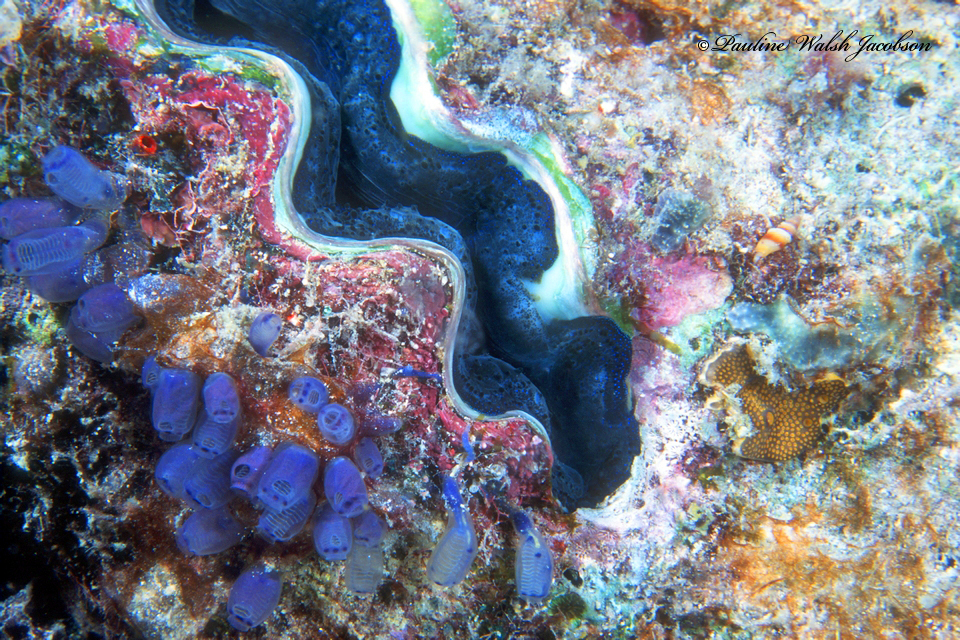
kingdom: Animalia
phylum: Mollusca
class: Bivalvia
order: Cardiida
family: Cardiidae
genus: Tridacna
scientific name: Tridacna crocea
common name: Boring clam
